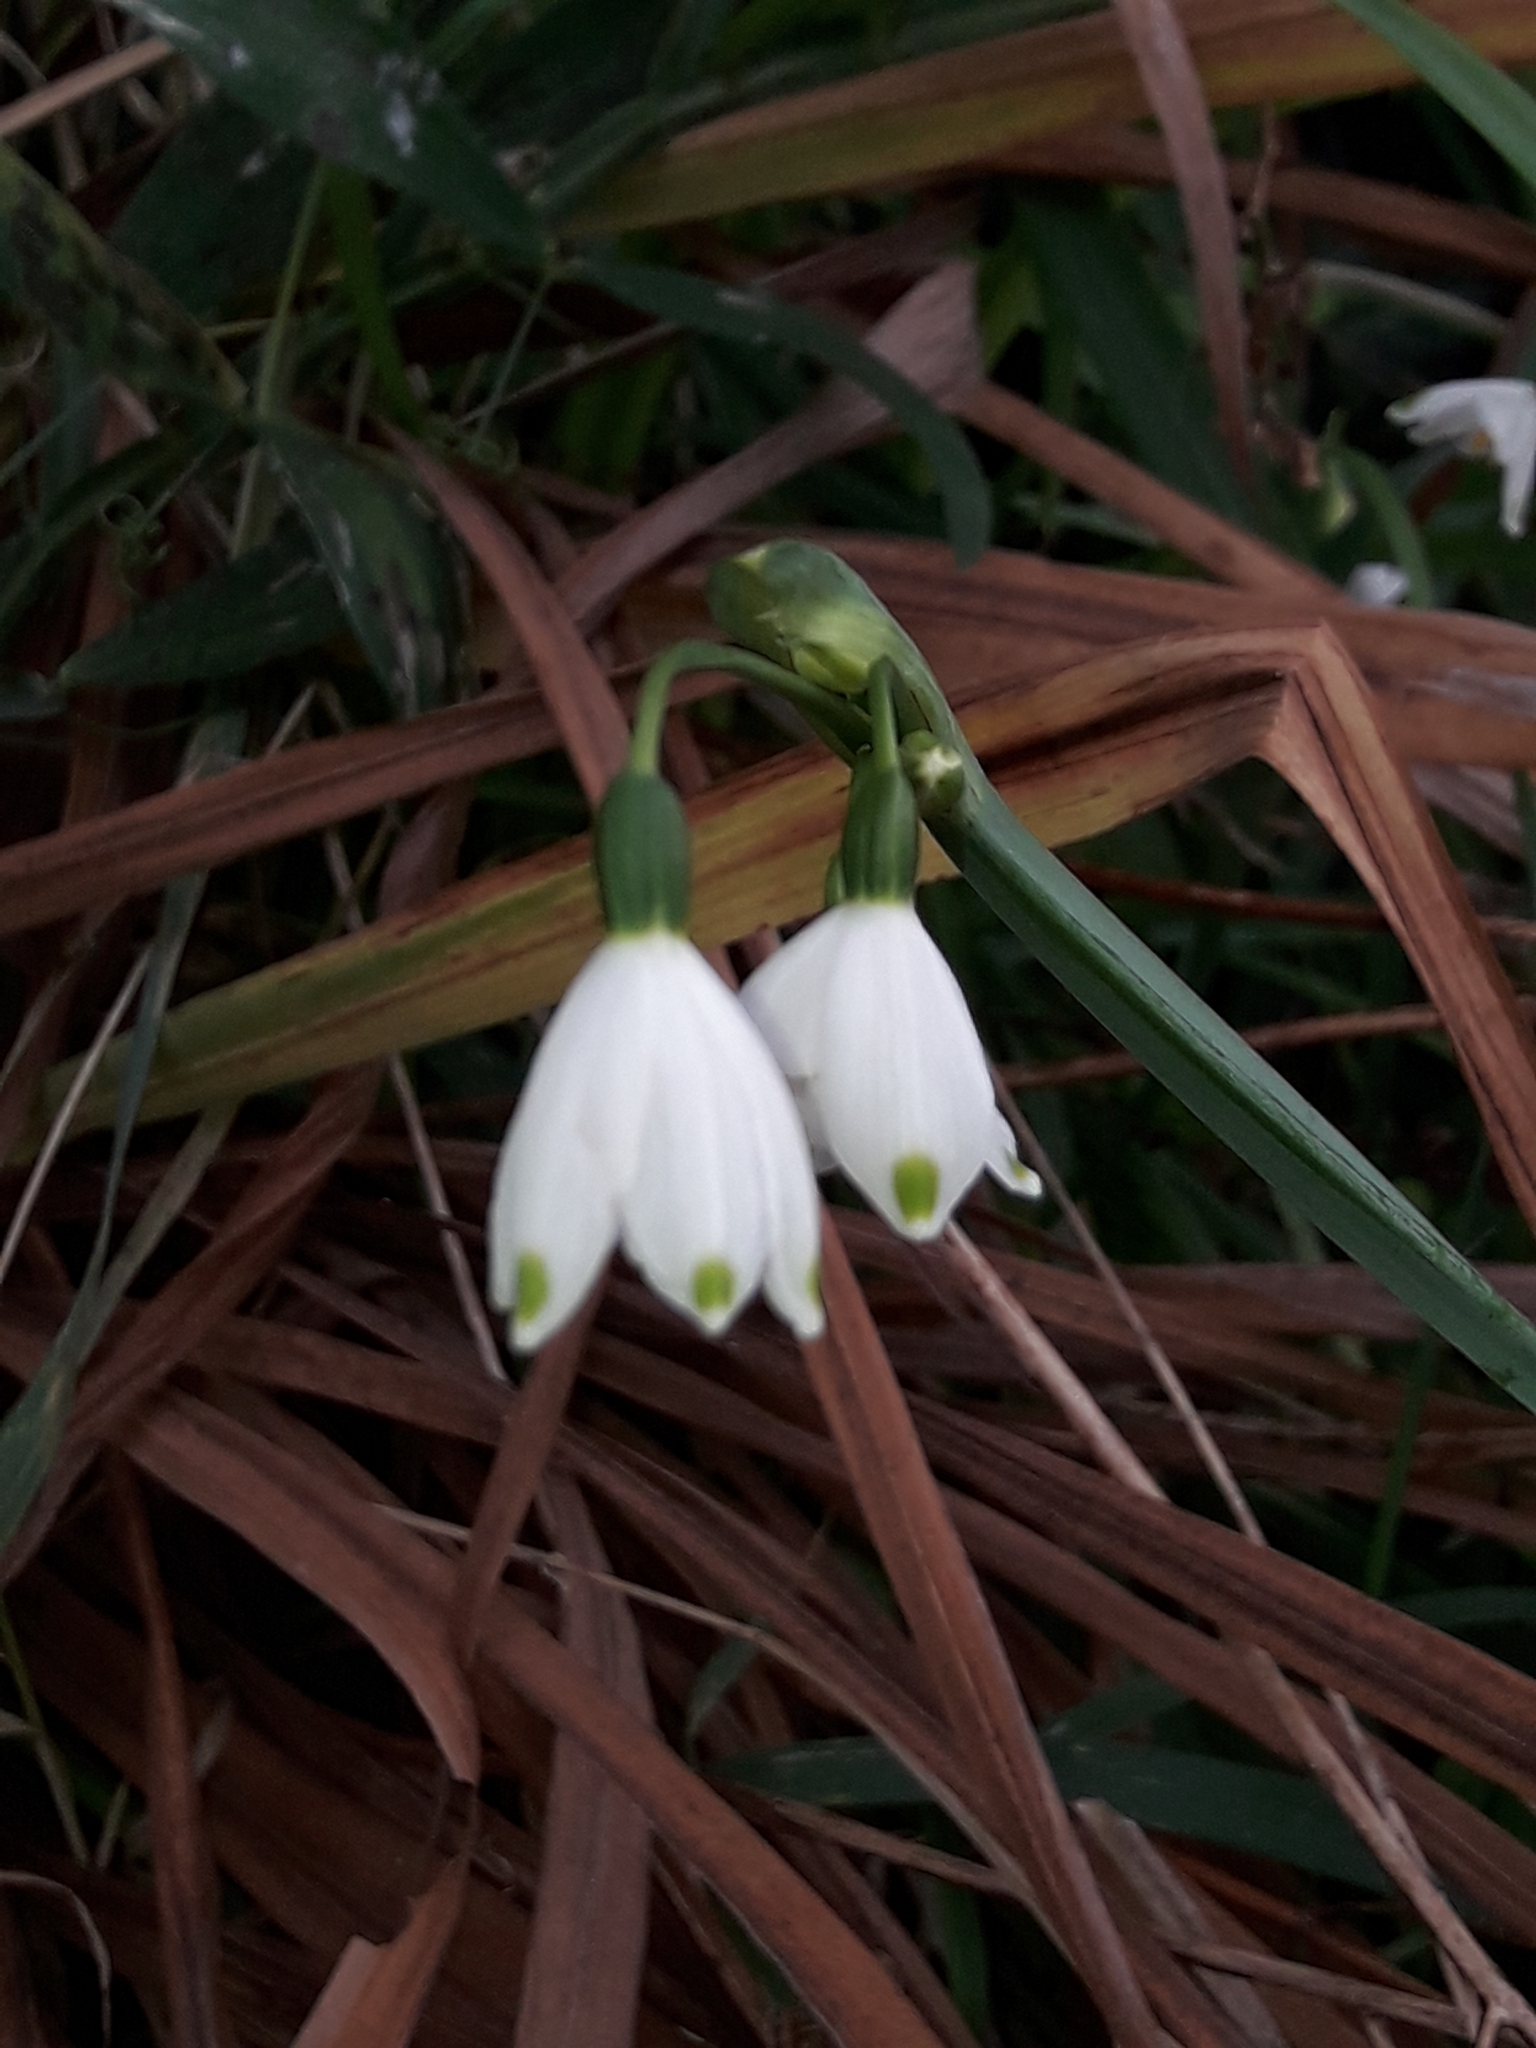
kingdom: Plantae
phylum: Tracheophyta
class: Liliopsida
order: Asparagales
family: Amaryllidaceae
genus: Leucojum
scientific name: Leucojum aestivum
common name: Summer snowflake
